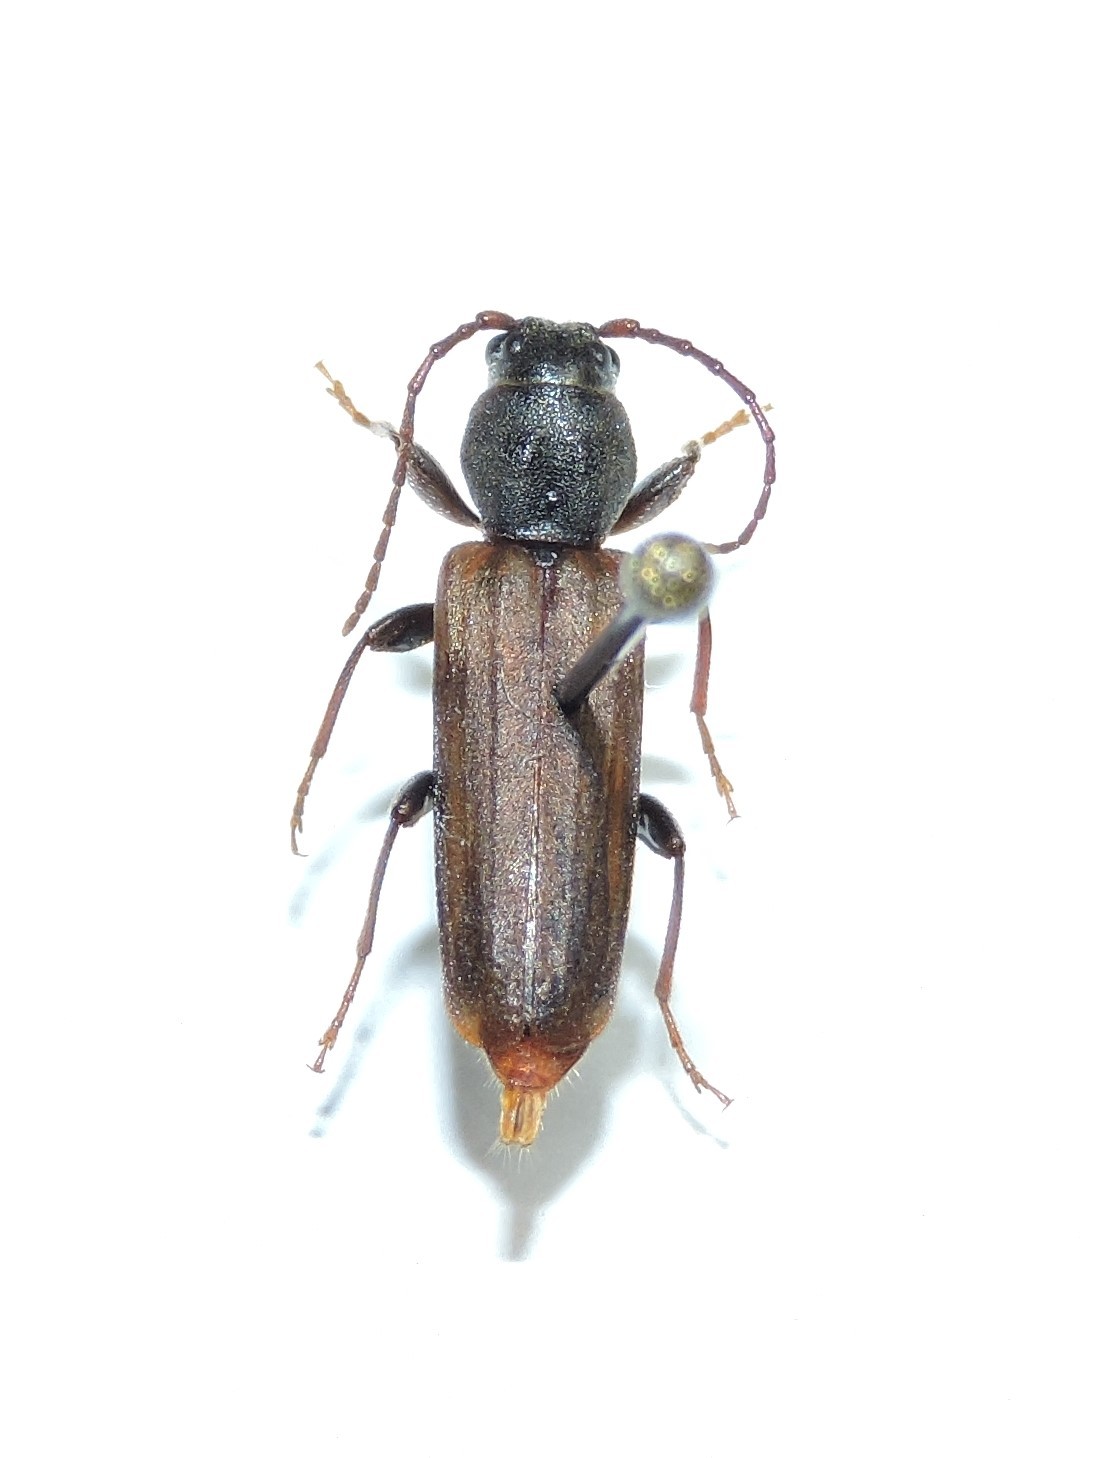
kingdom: Animalia
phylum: Arthropoda
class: Insecta
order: Coleoptera
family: Cerambycidae
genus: Tetropium
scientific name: Tetropium fuscum
